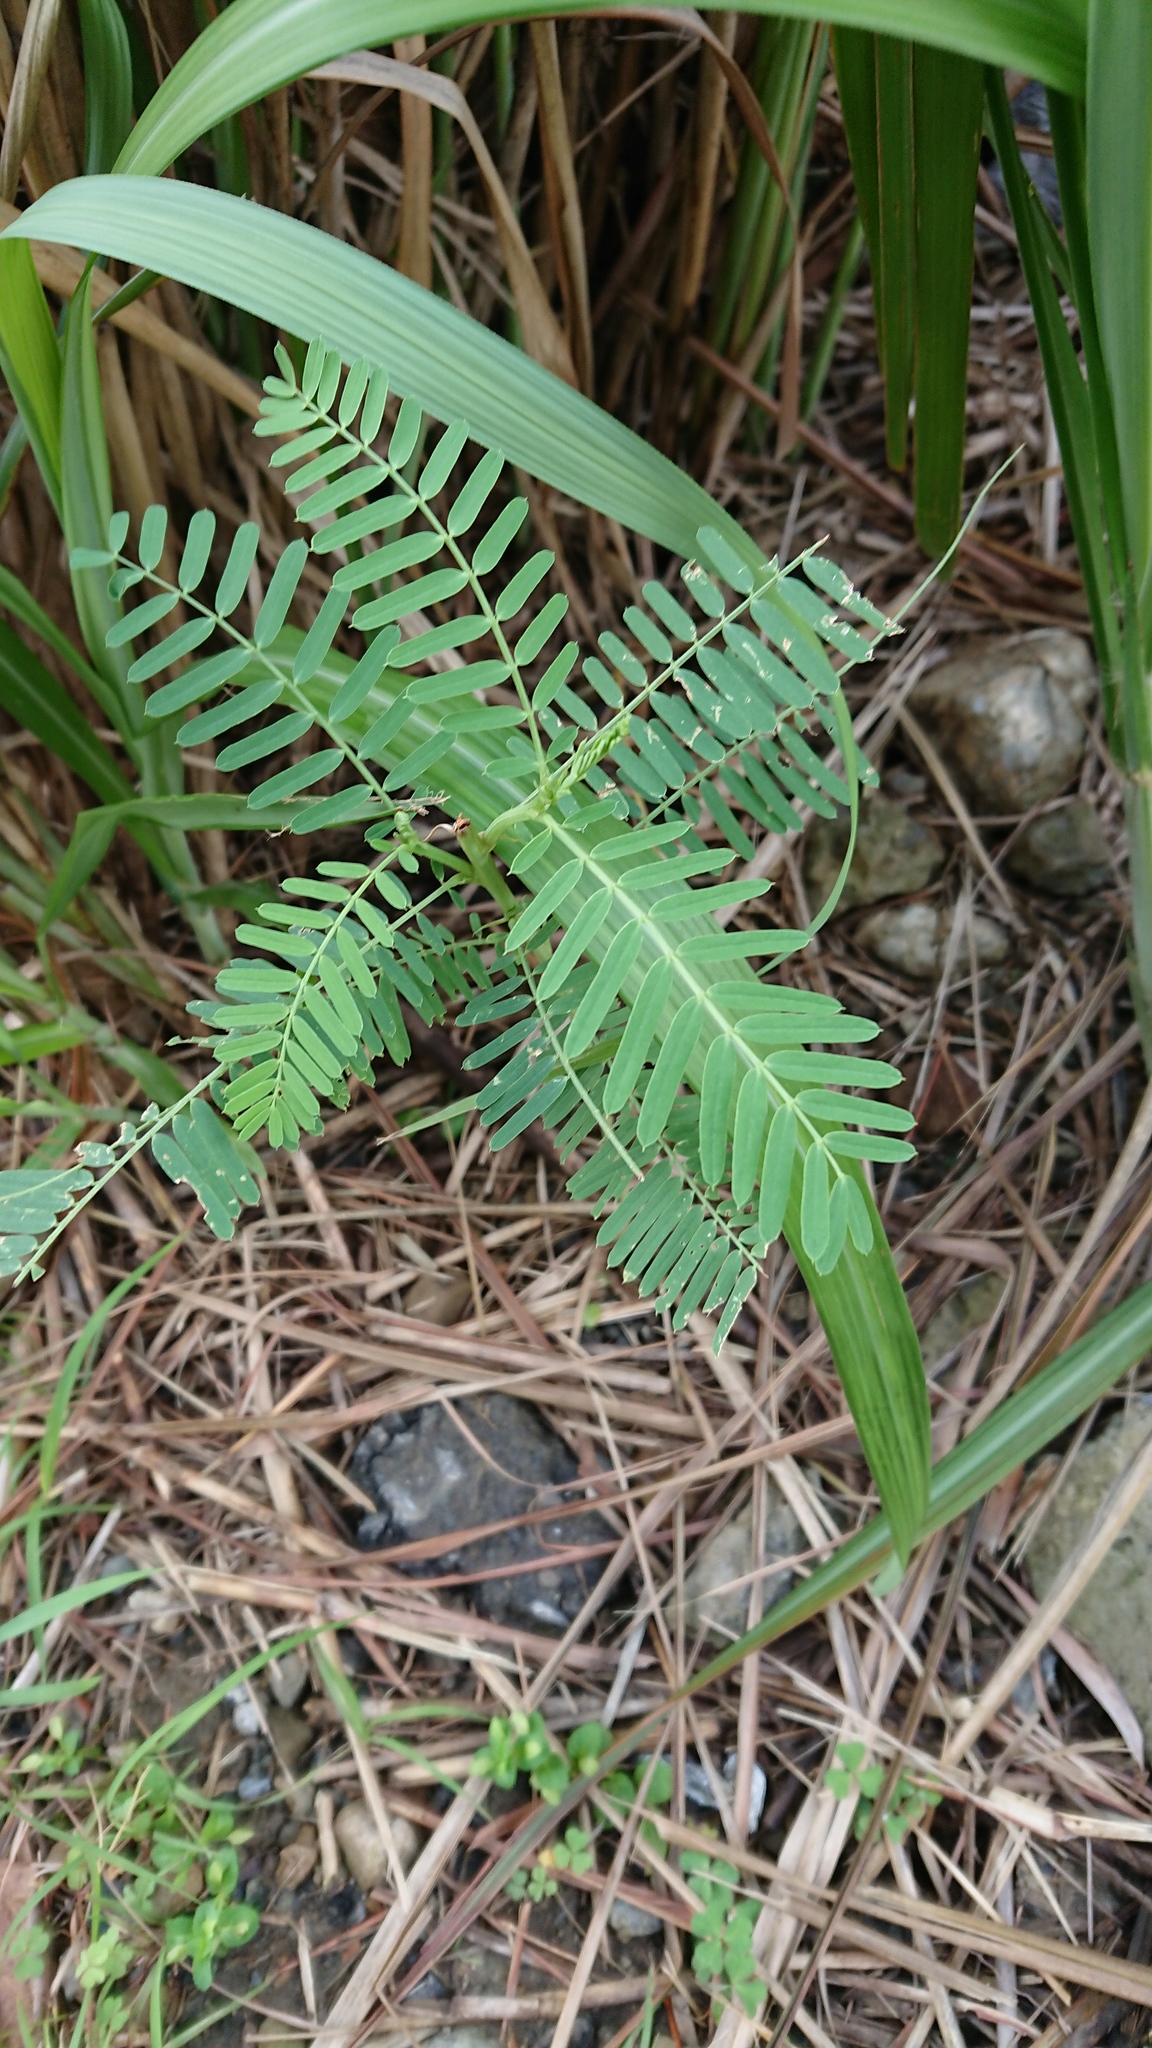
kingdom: Plantae
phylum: Tracheophyta
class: Magnoliopsida
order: Fabales
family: Fabaceae
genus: Sesbania
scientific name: Sesbania cannabina
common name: Canicha
